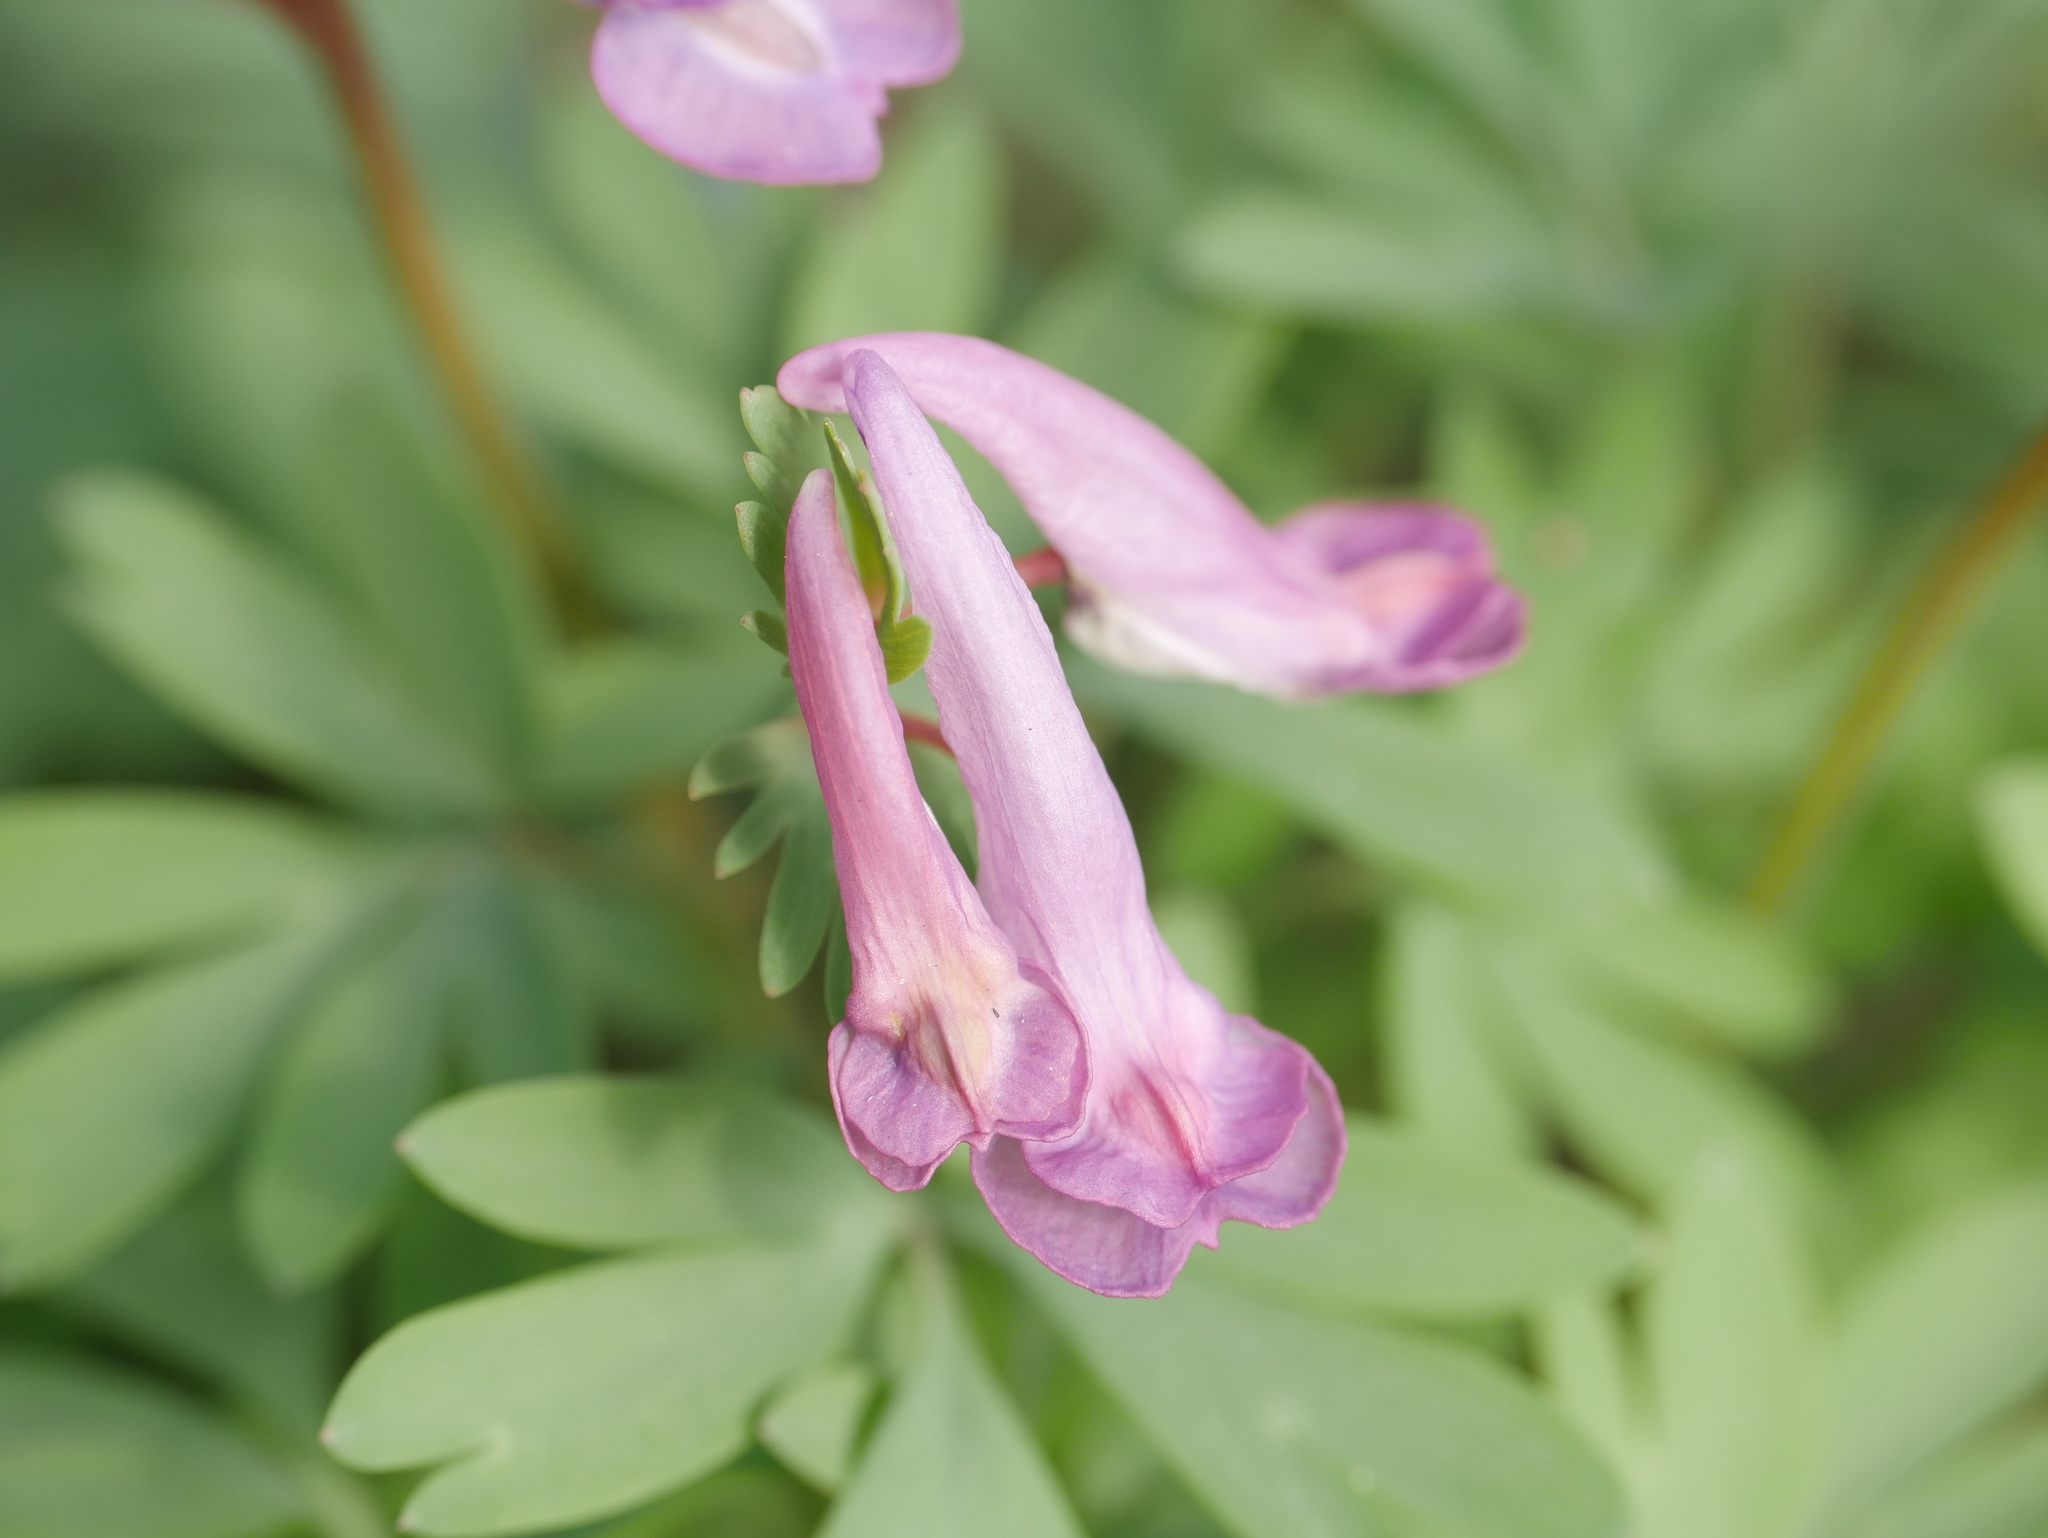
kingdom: Plantae
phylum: Tracheophyta
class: Magnoliopsida
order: Ranunculales
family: Papaveraceae
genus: Corydalis
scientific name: Corydalis solida
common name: Bird-in-a-bush
